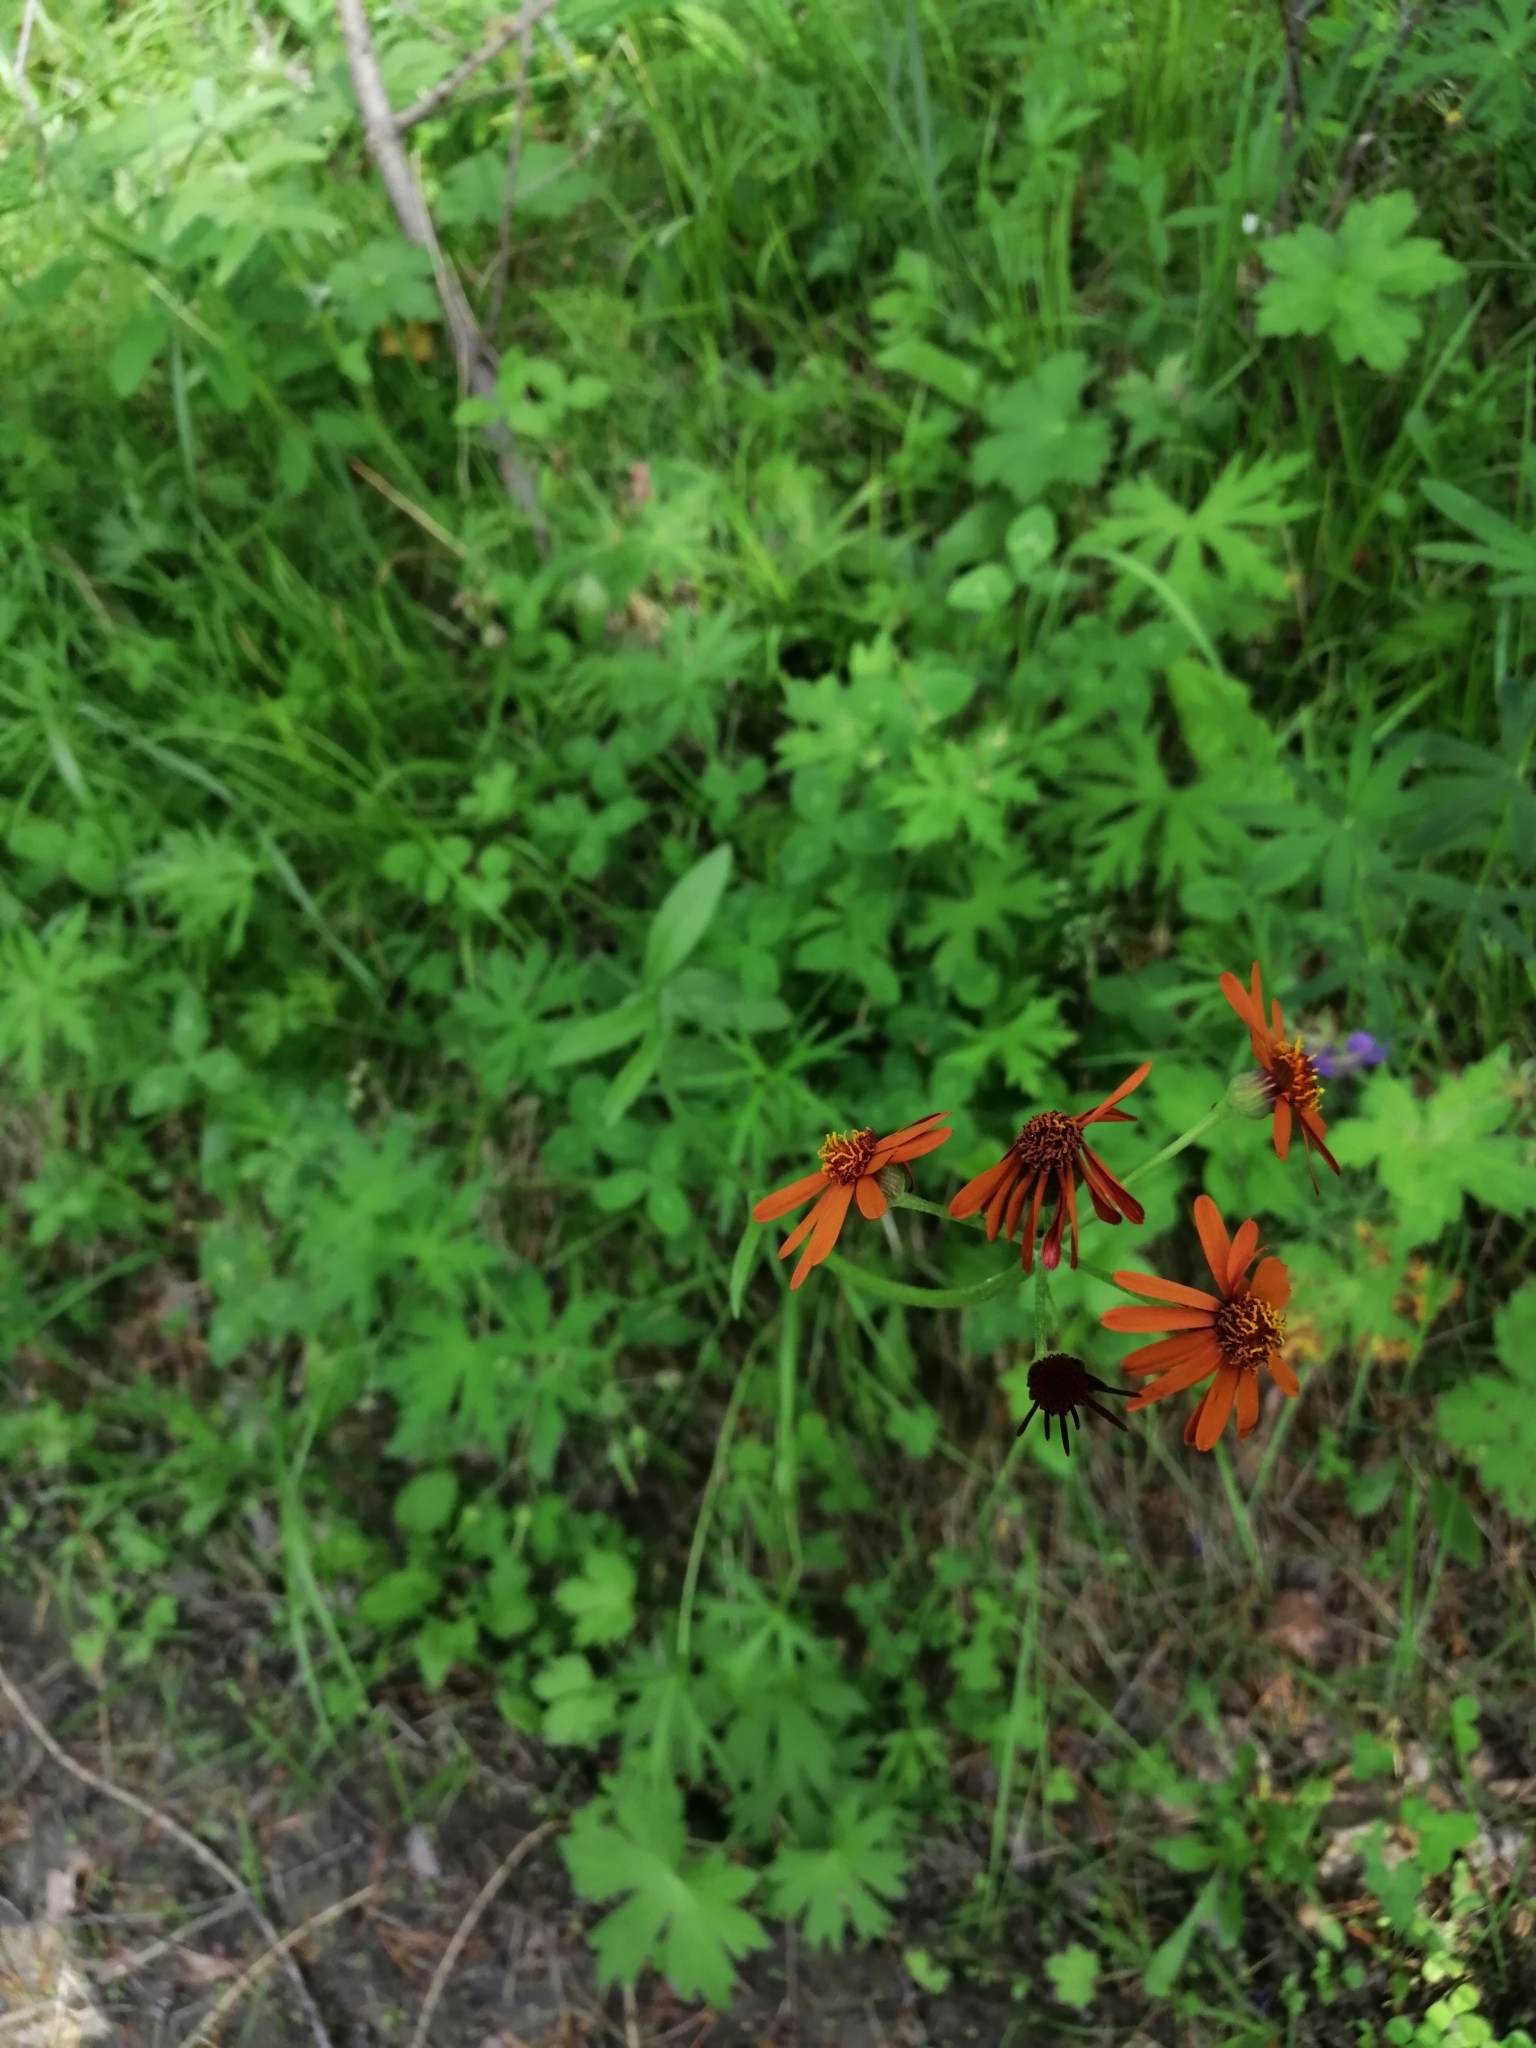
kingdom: Plantae
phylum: Tracheophyta
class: Magnoliopsida
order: Asterales
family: Asteraceae
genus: Tephroseris
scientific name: Tephroseris porphyrantha
